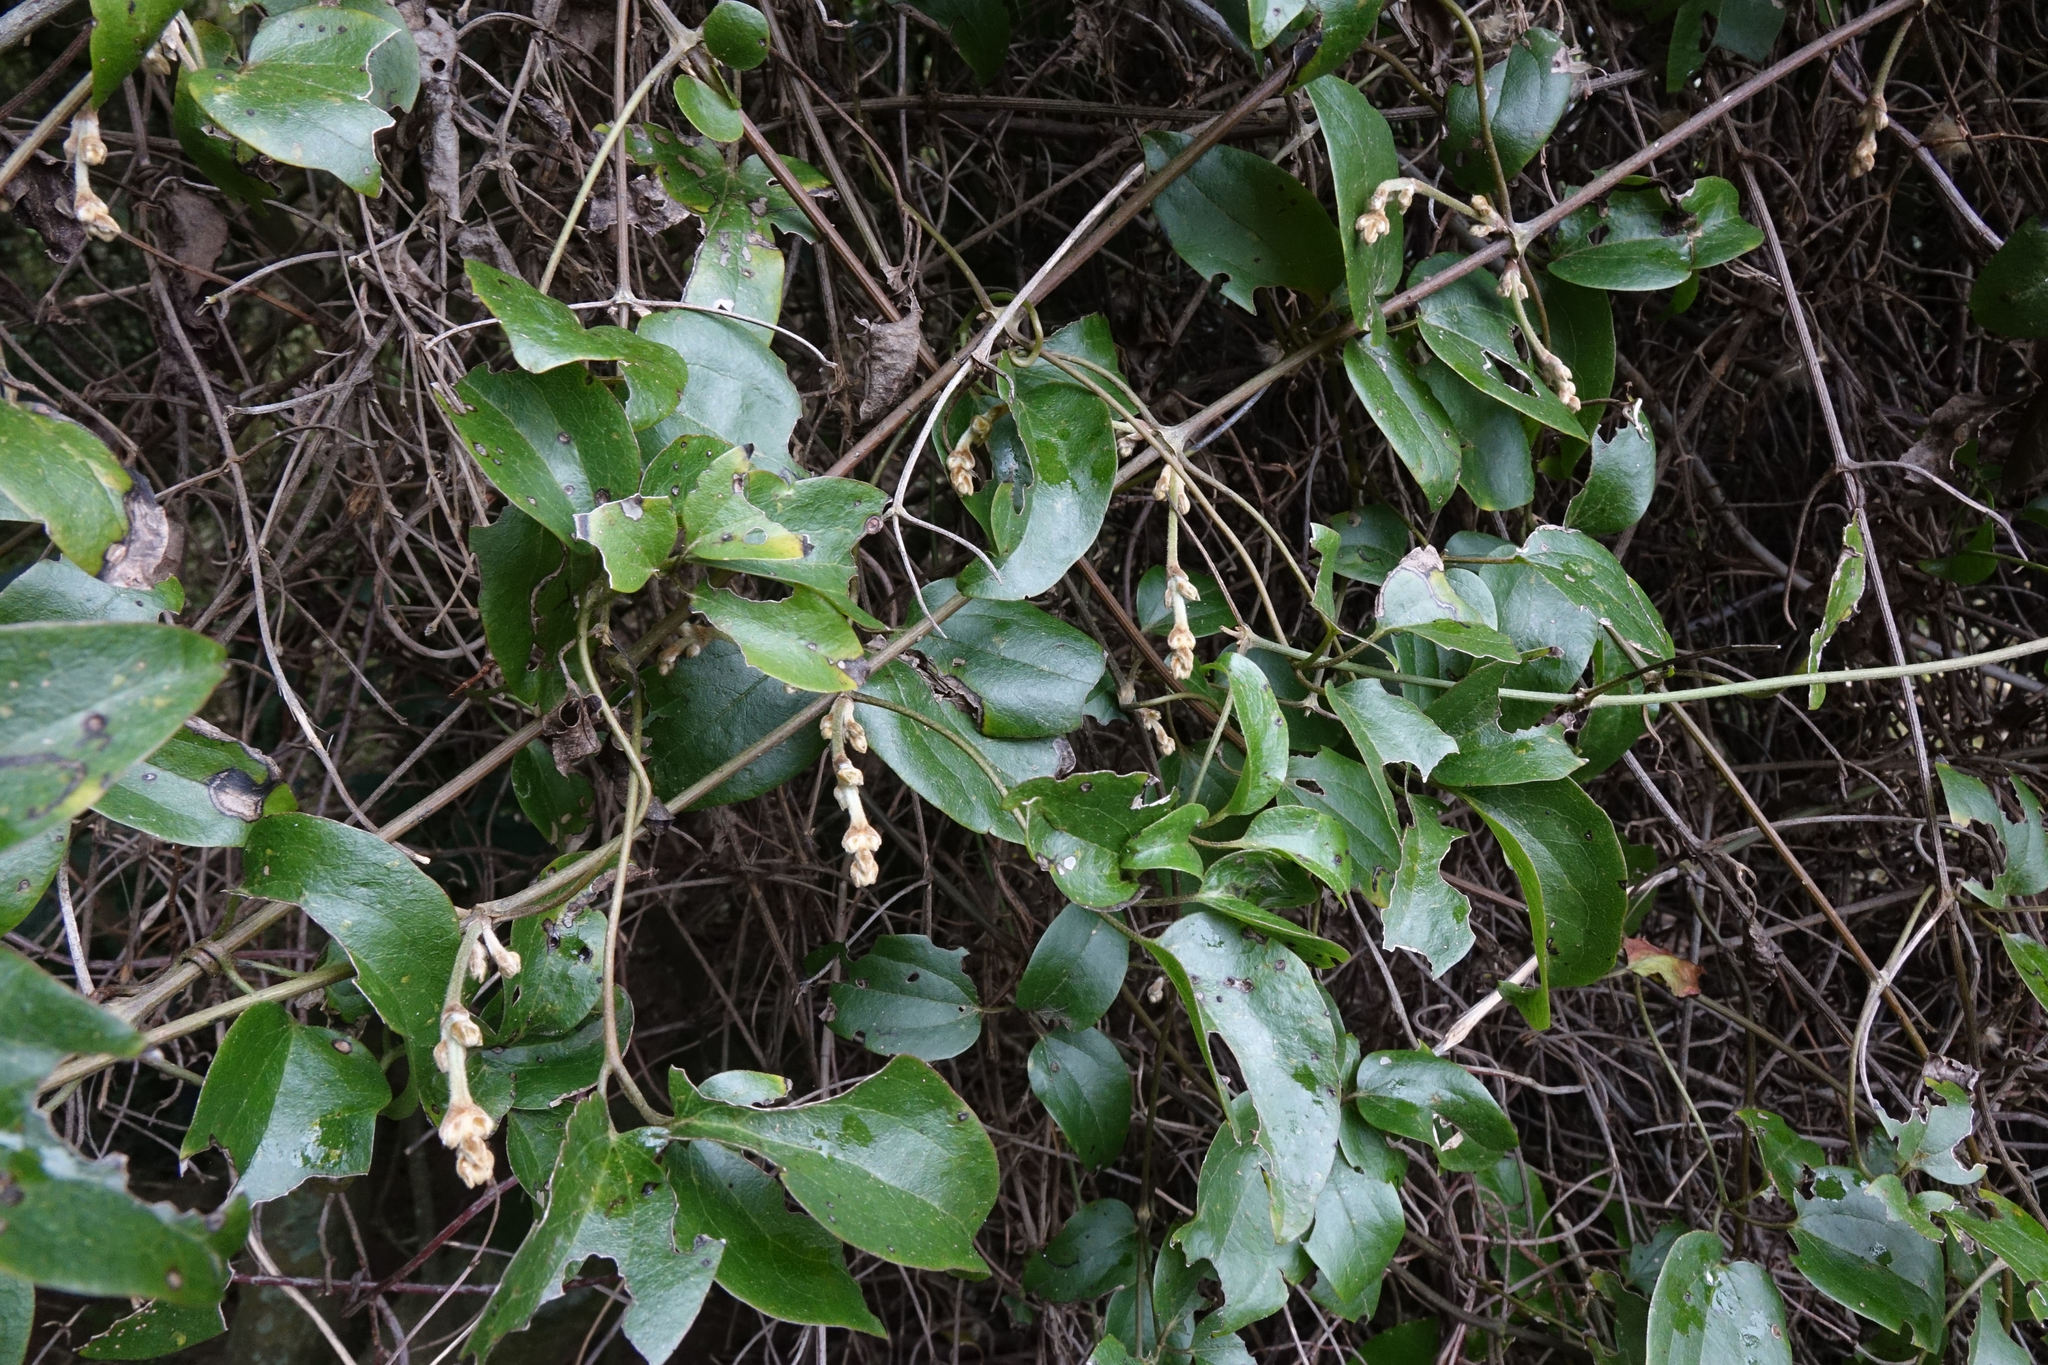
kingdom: Plantae
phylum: Tracheophyta
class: Magnoliopsida
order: Ranunculales
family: Ranunculaceae
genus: Clematis
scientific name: Clematis foetida
